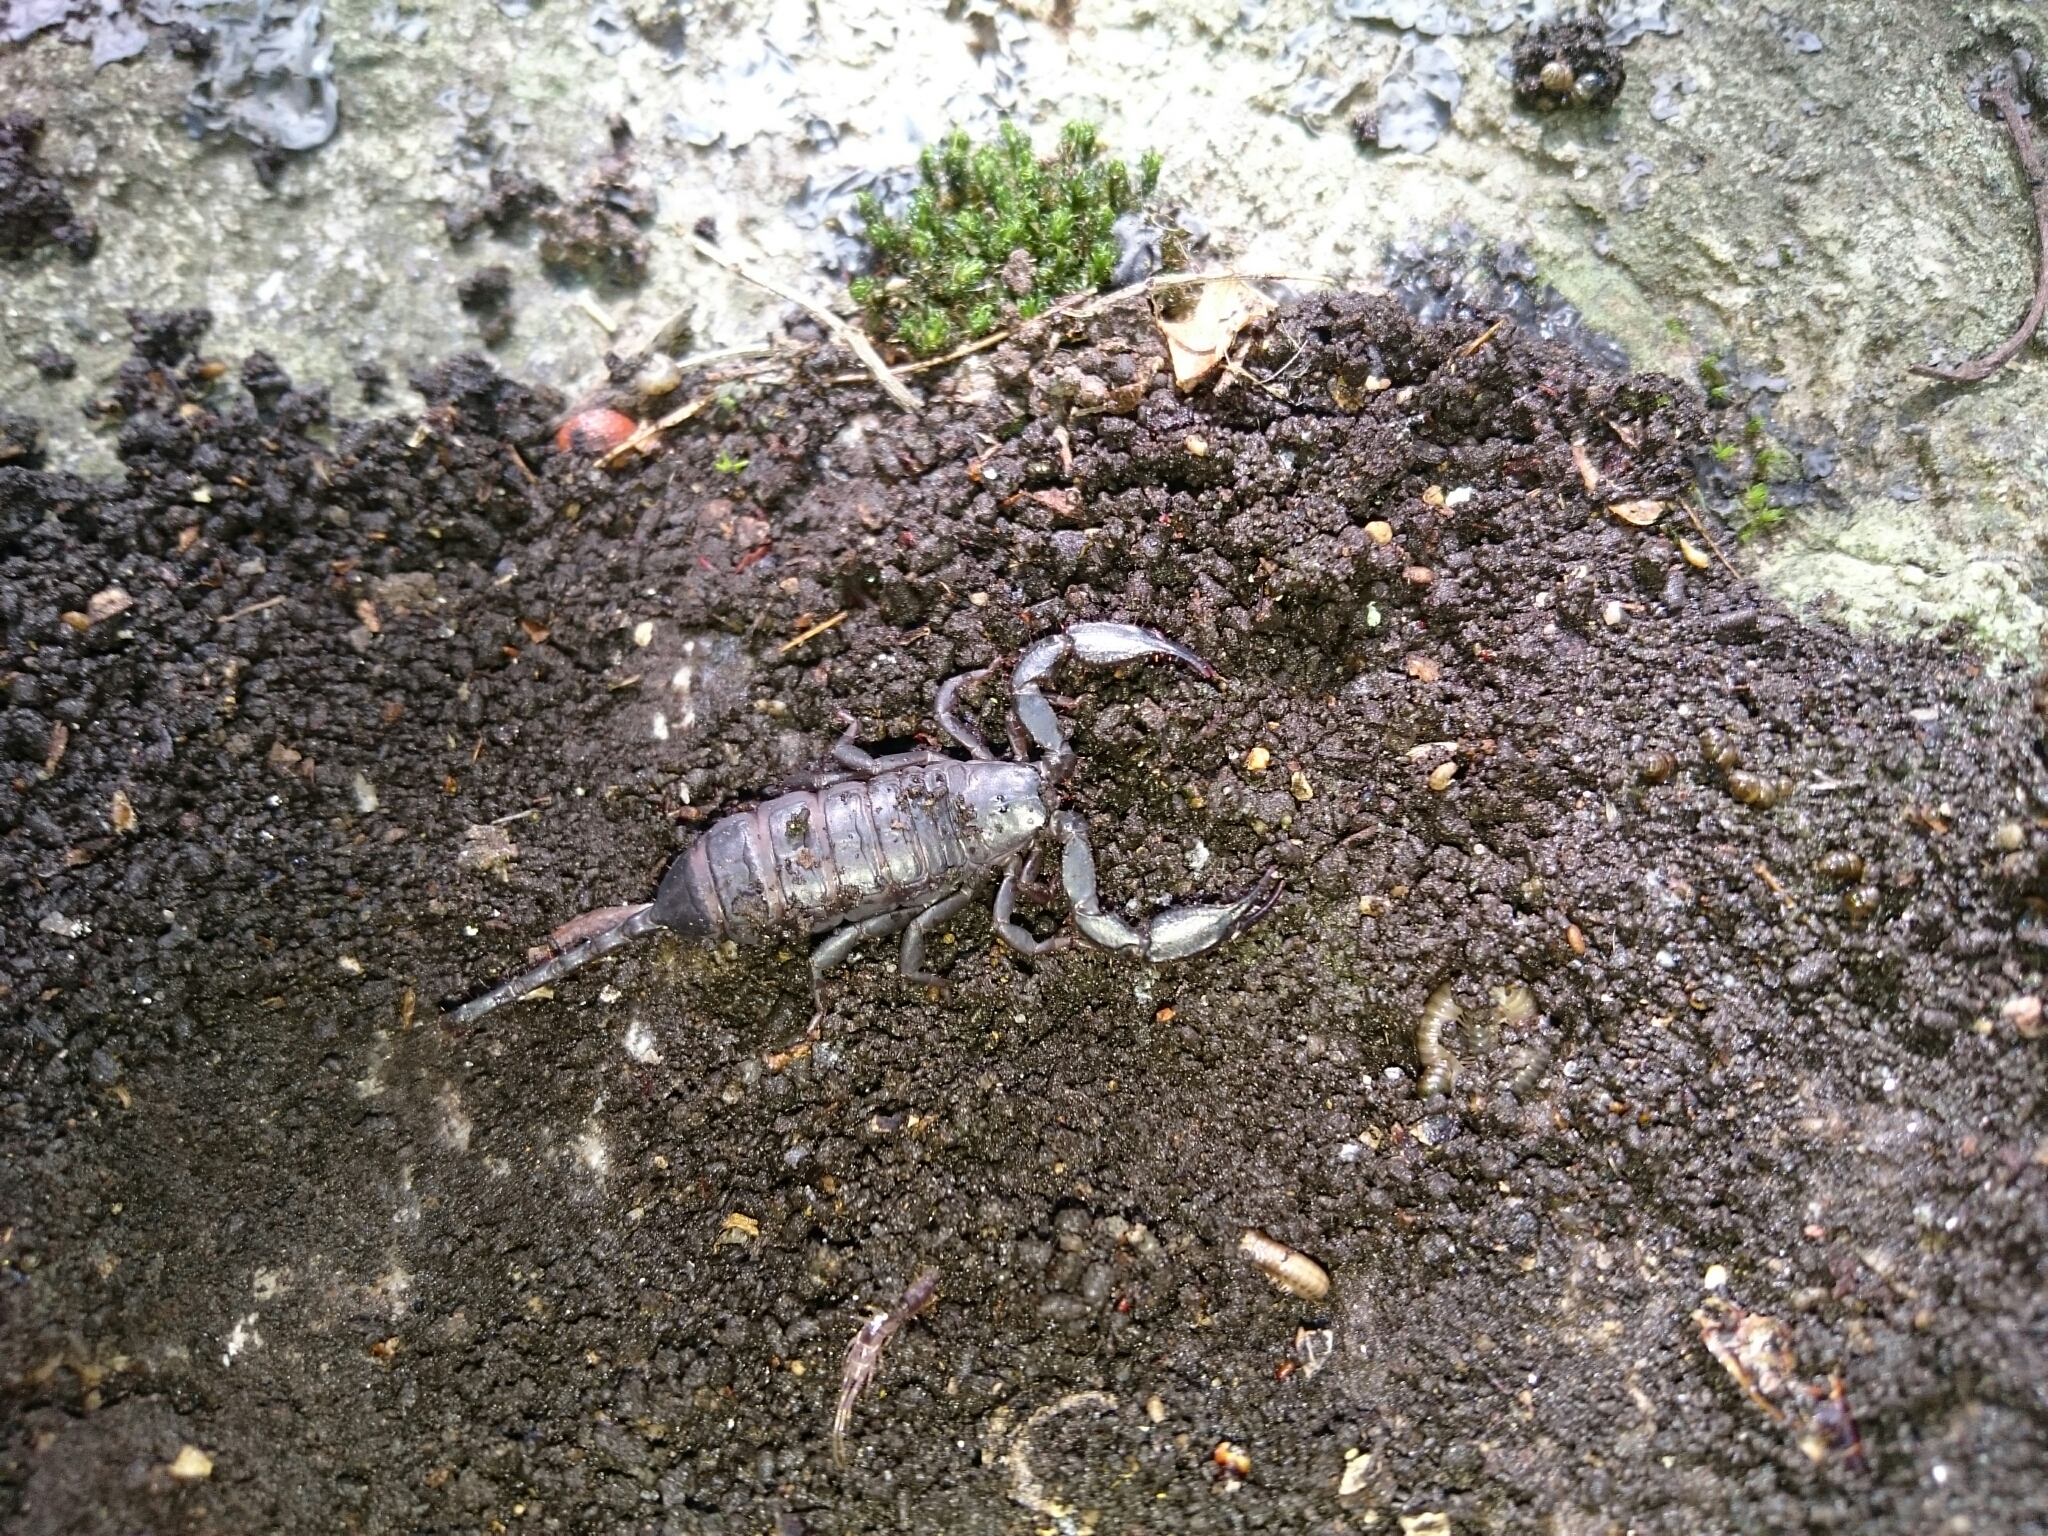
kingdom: Animalia
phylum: Arthropoda
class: Arachnida
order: Scorpiones
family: Hormuridae
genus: Opisthacanthus
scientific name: Opisthacanthus capensis
